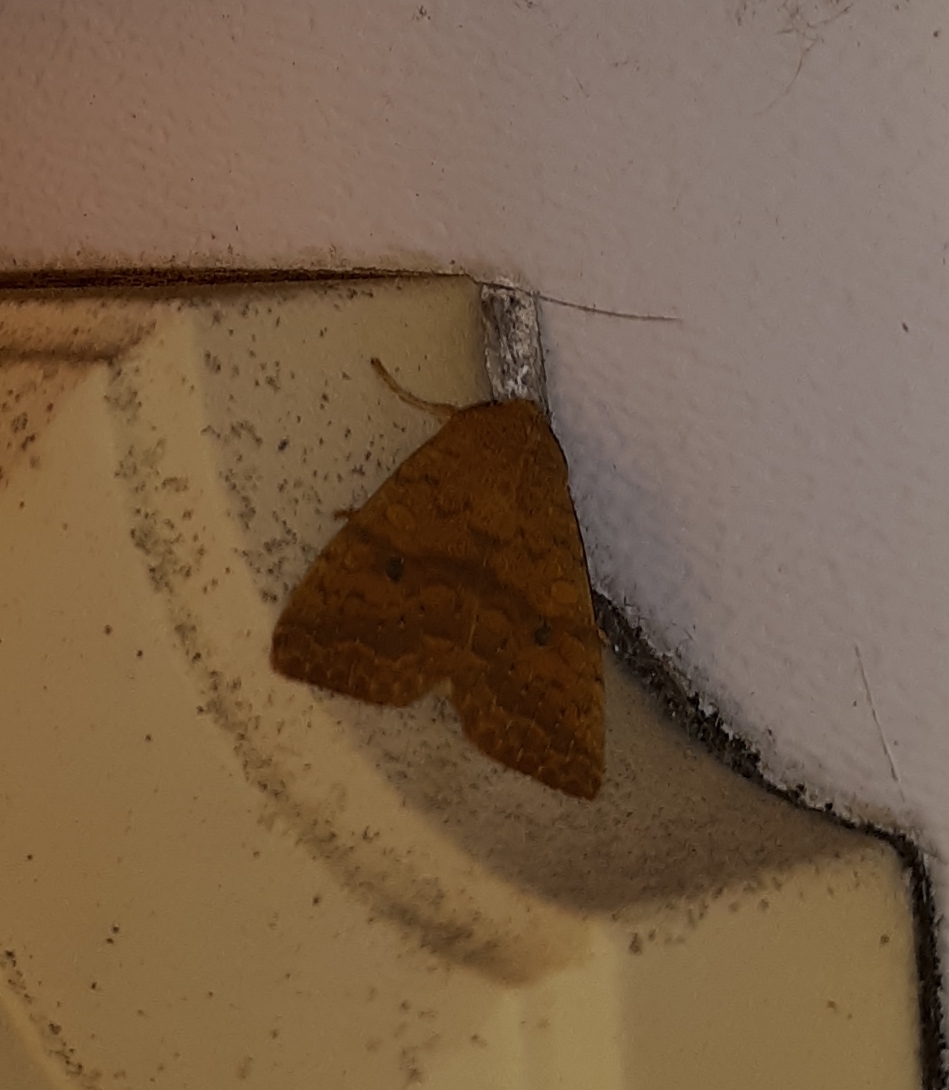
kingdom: Animalia
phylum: Arthropoda
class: Insecta
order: Lepidoptera
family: Noctuidae
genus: Agrochola
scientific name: Agrochola bicolorago
